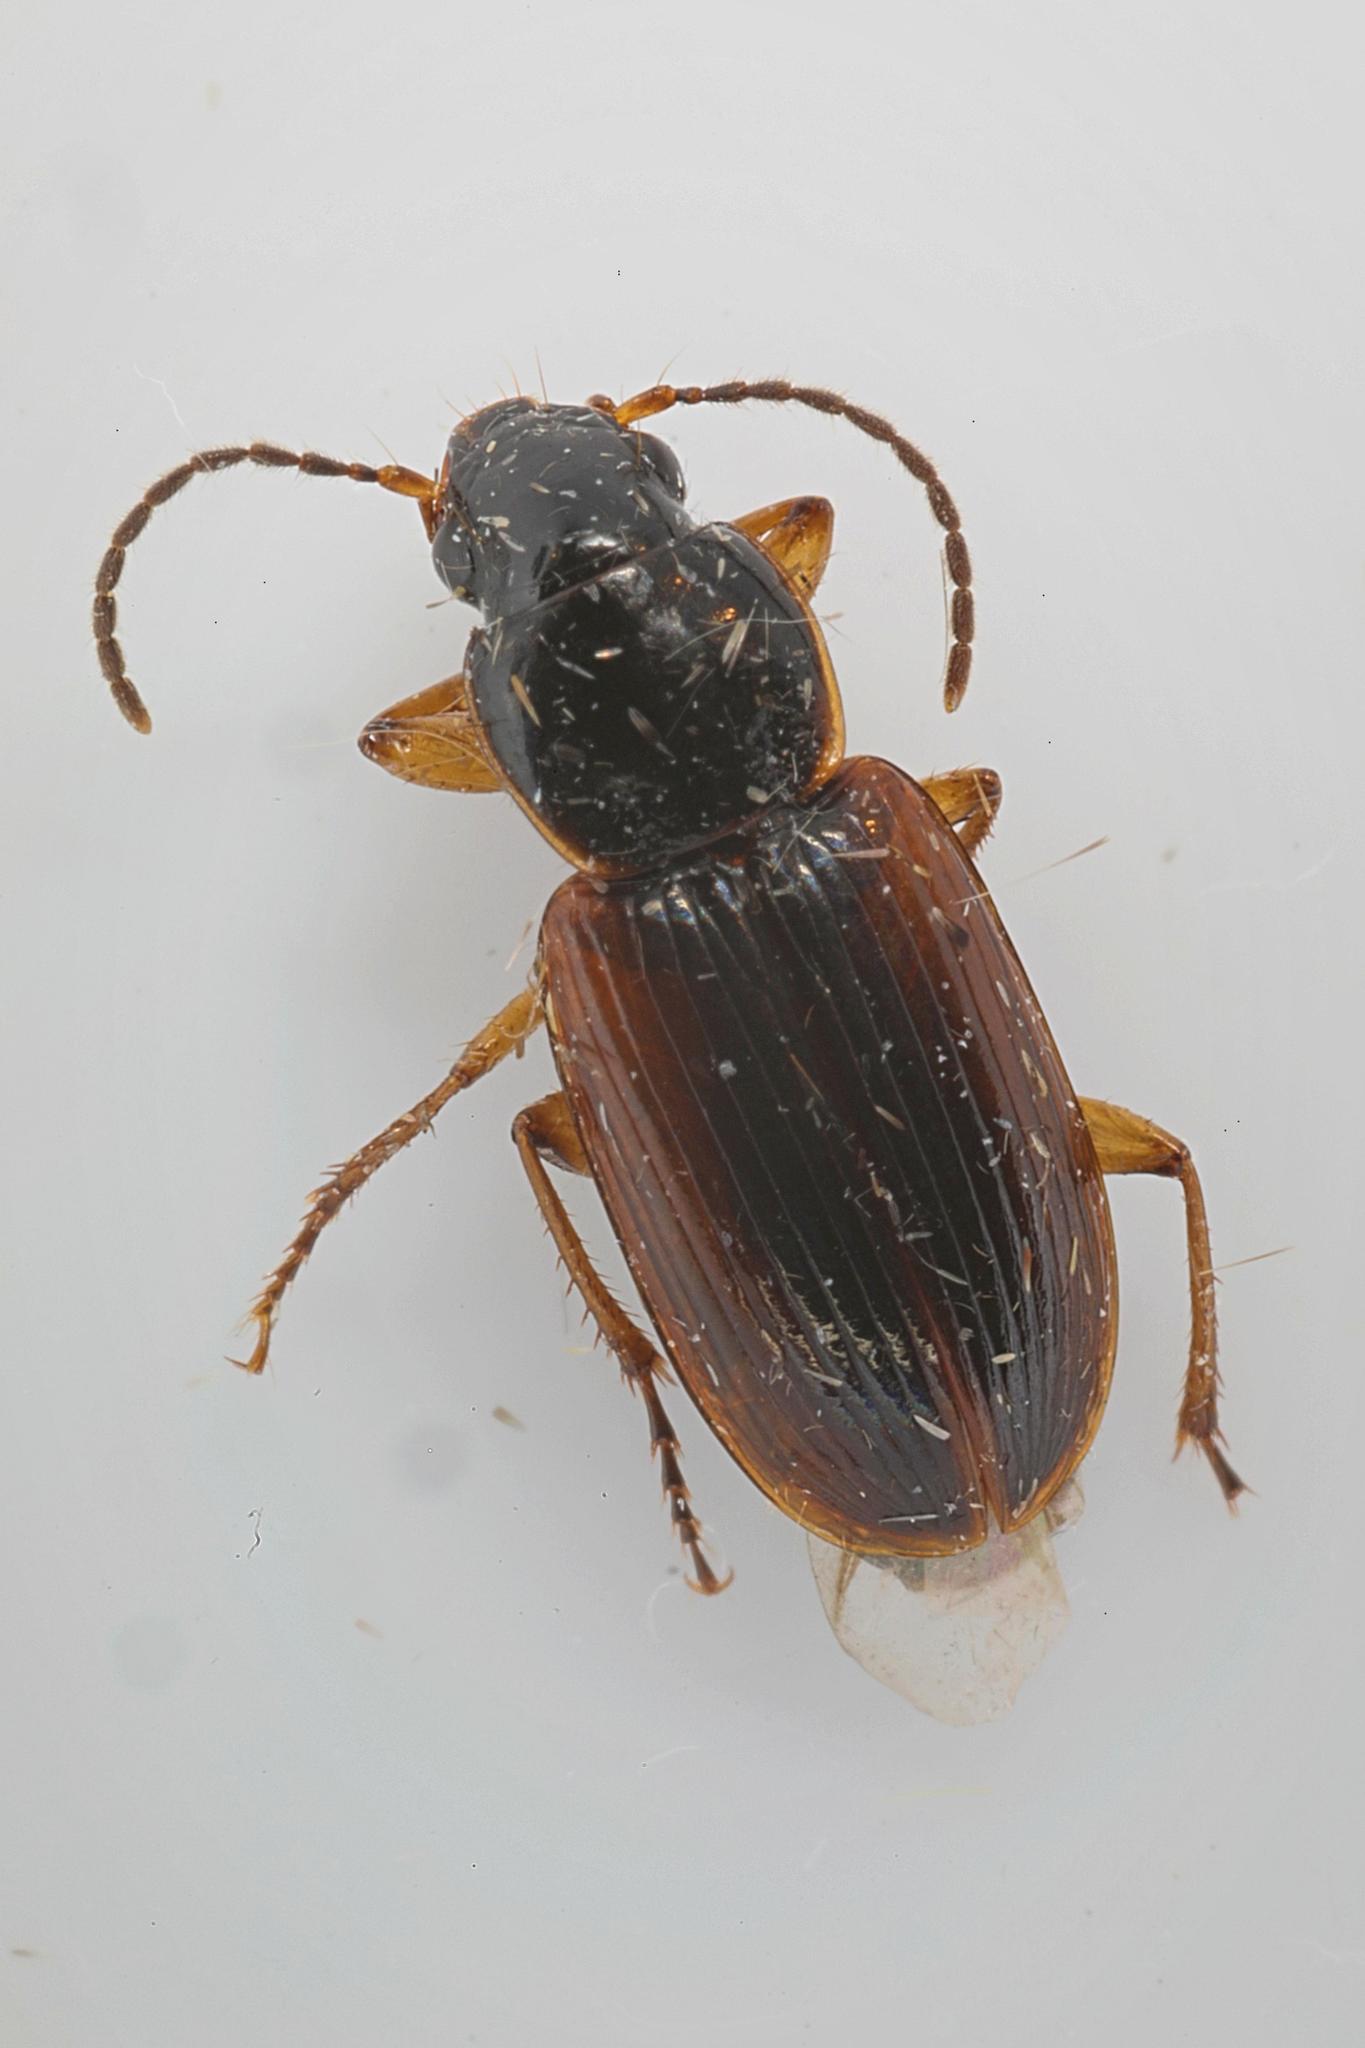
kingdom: Animalia
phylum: Arthropoda
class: Insecta
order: Coleoptera
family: Carabidae
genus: Stenolophus
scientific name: Stenolophus mixtus
